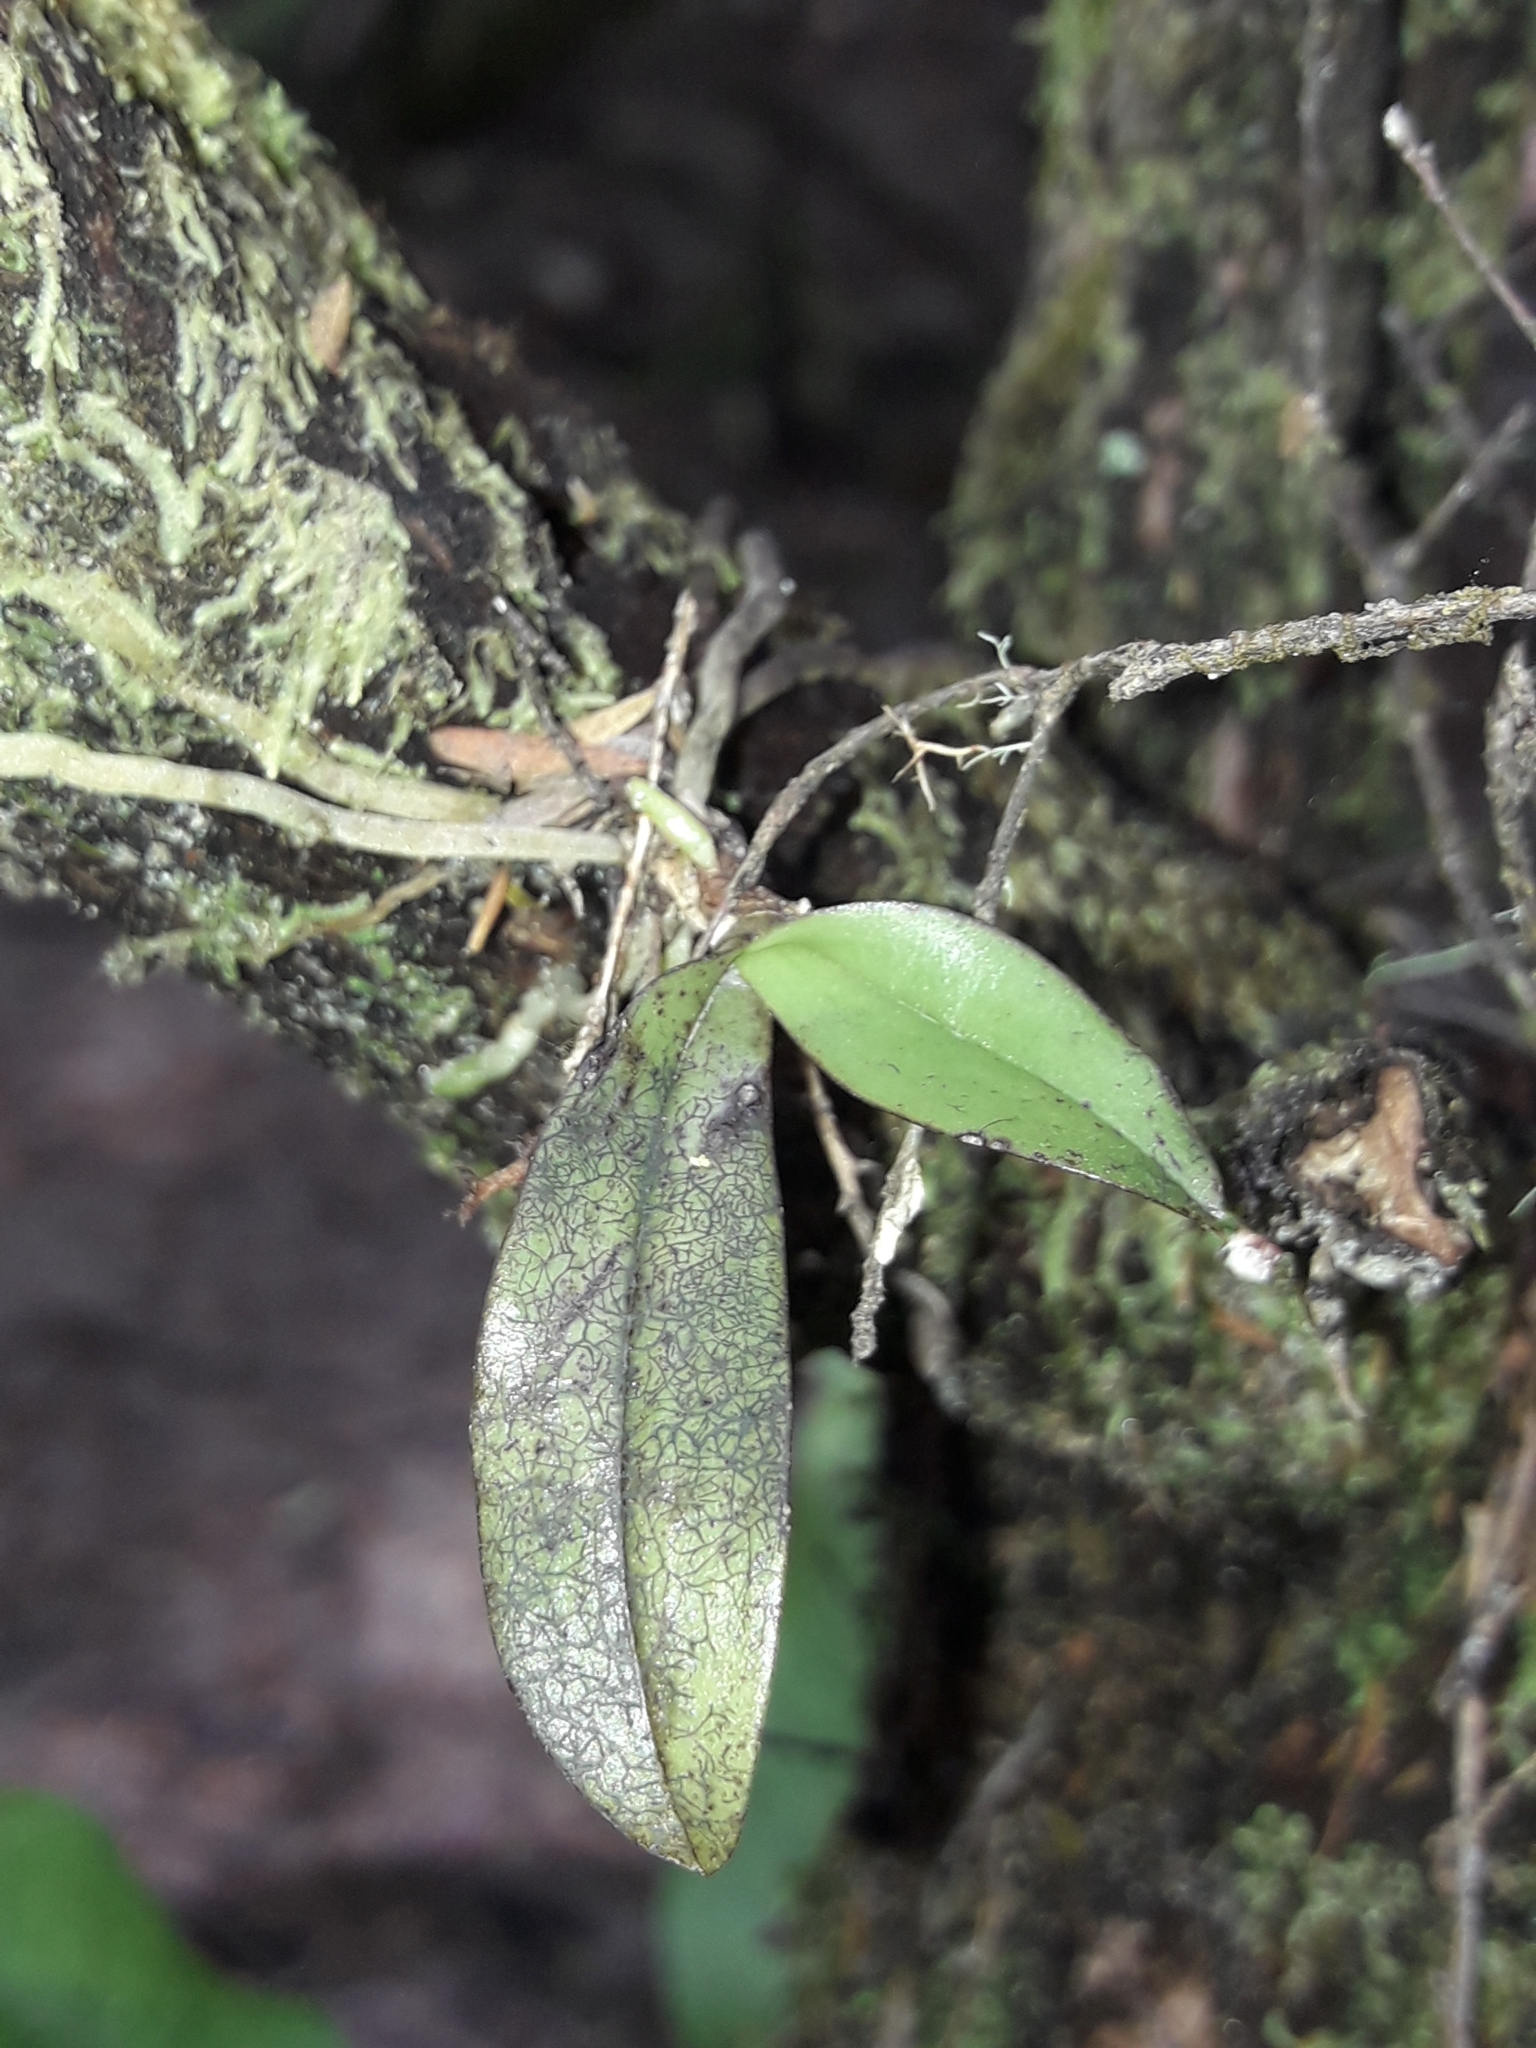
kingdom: Plantae
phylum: Tracheophyta
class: Liliopsida
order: Asparagales
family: Orchidaceae
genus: Drymoanthus
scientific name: Drymoanthus adversus
